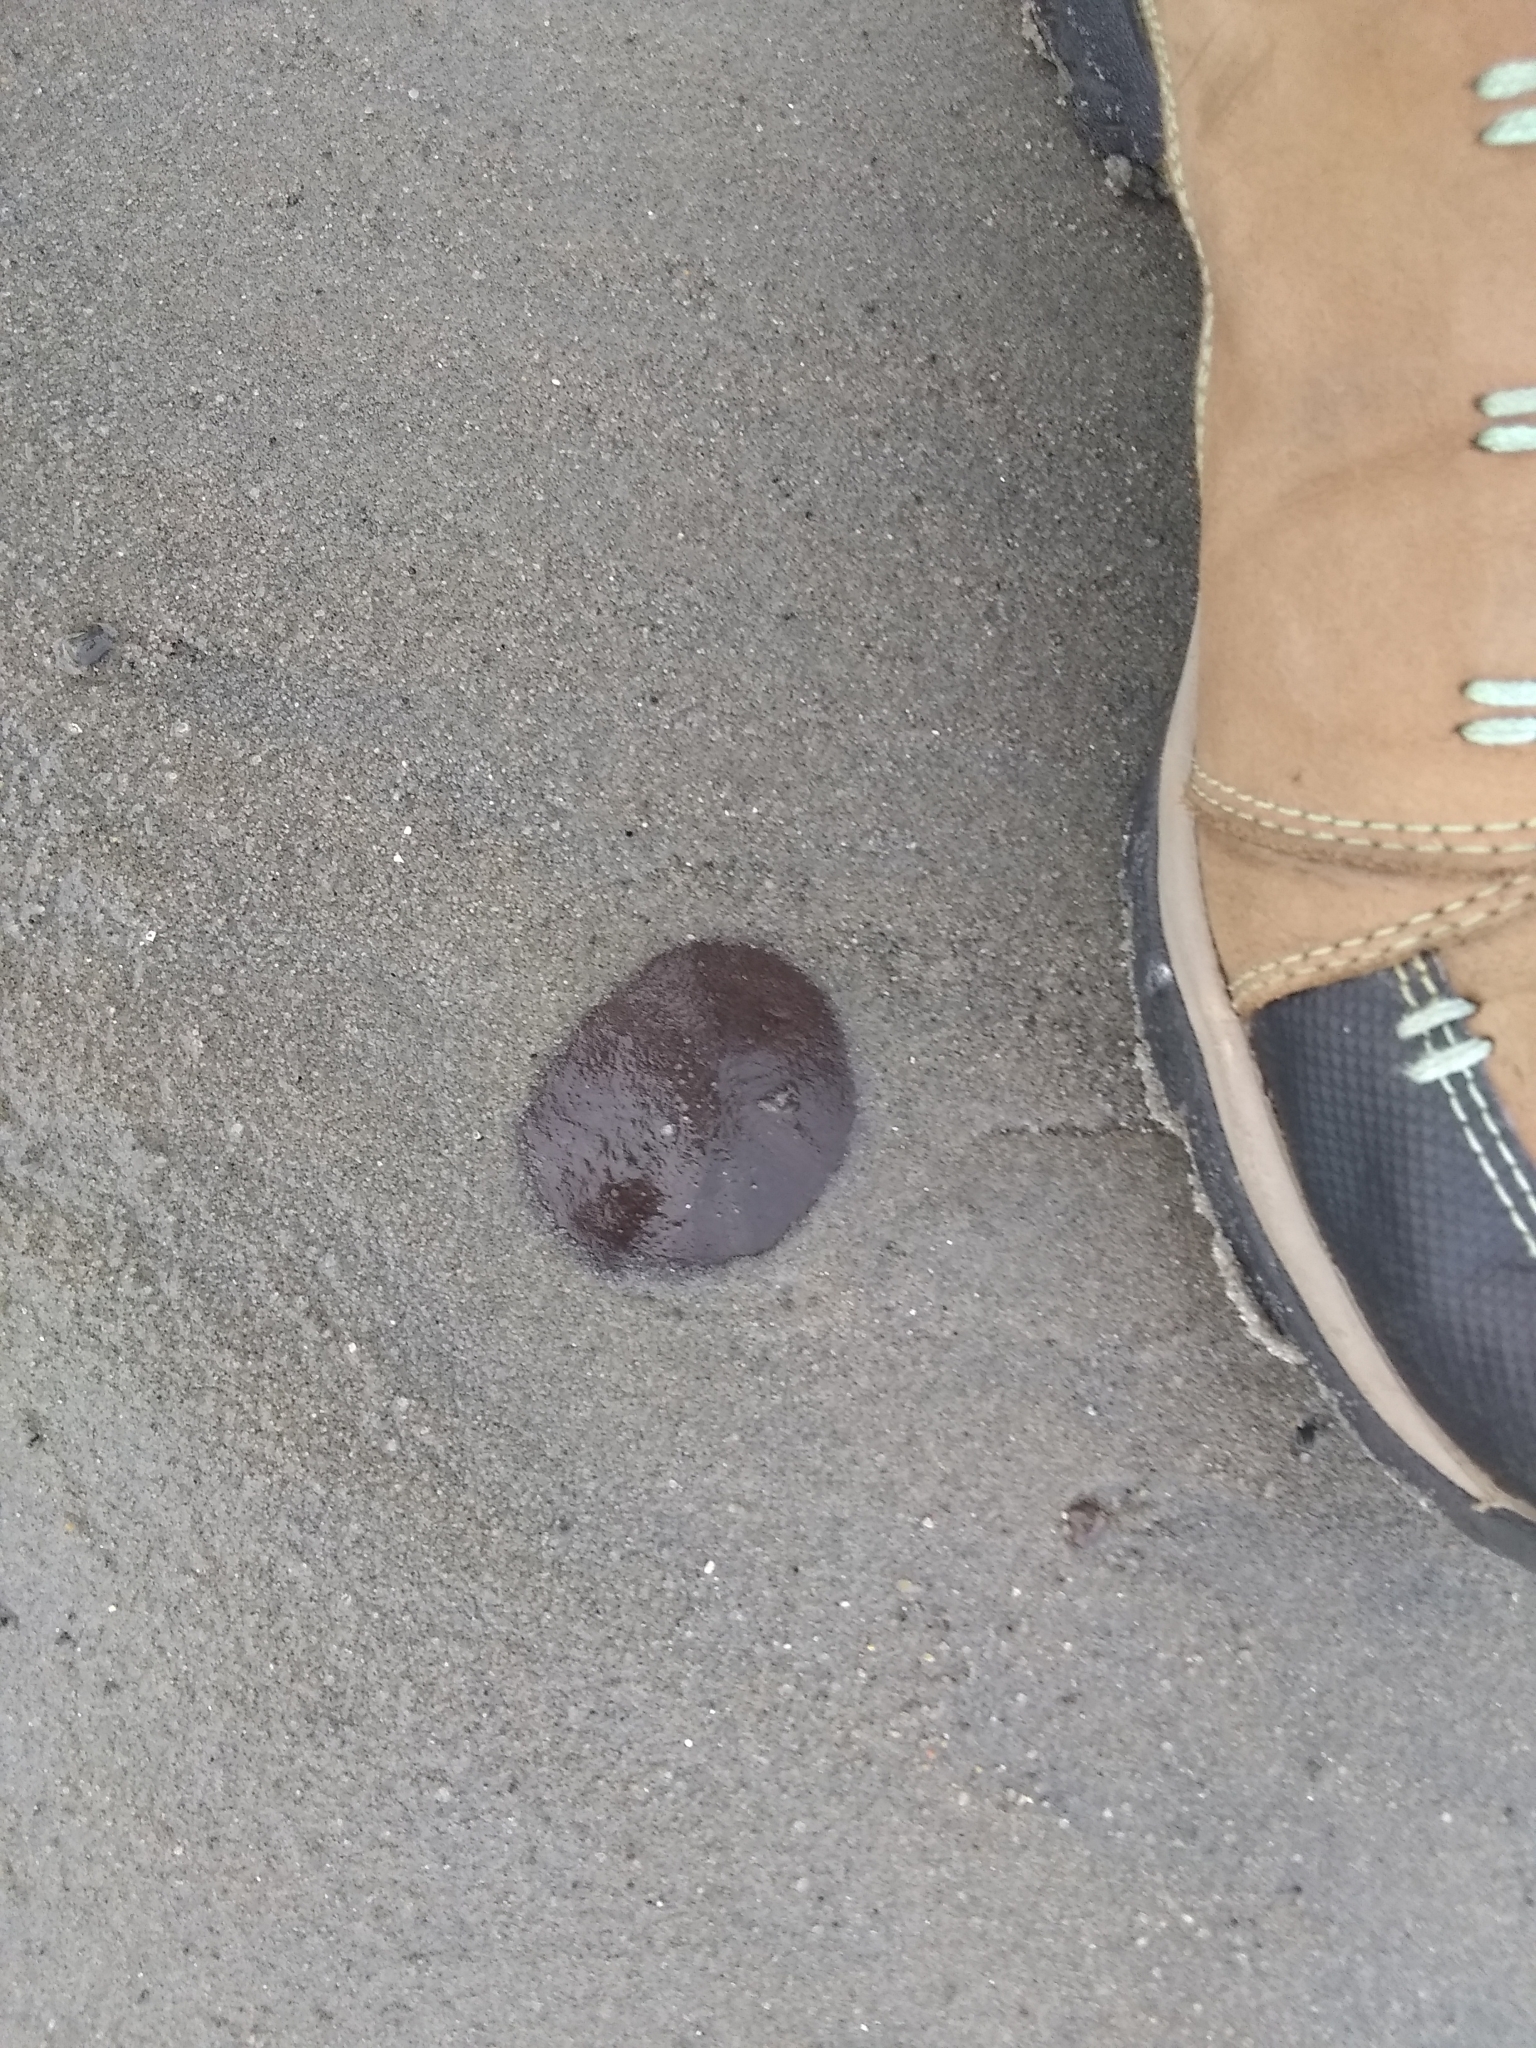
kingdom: Animalia
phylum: Echinodermata
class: Echinoidea
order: Echinolampadacea
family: Echinarachniidae
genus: Echinarachnius
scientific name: Echinarachnius parma
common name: Common sand dollar
